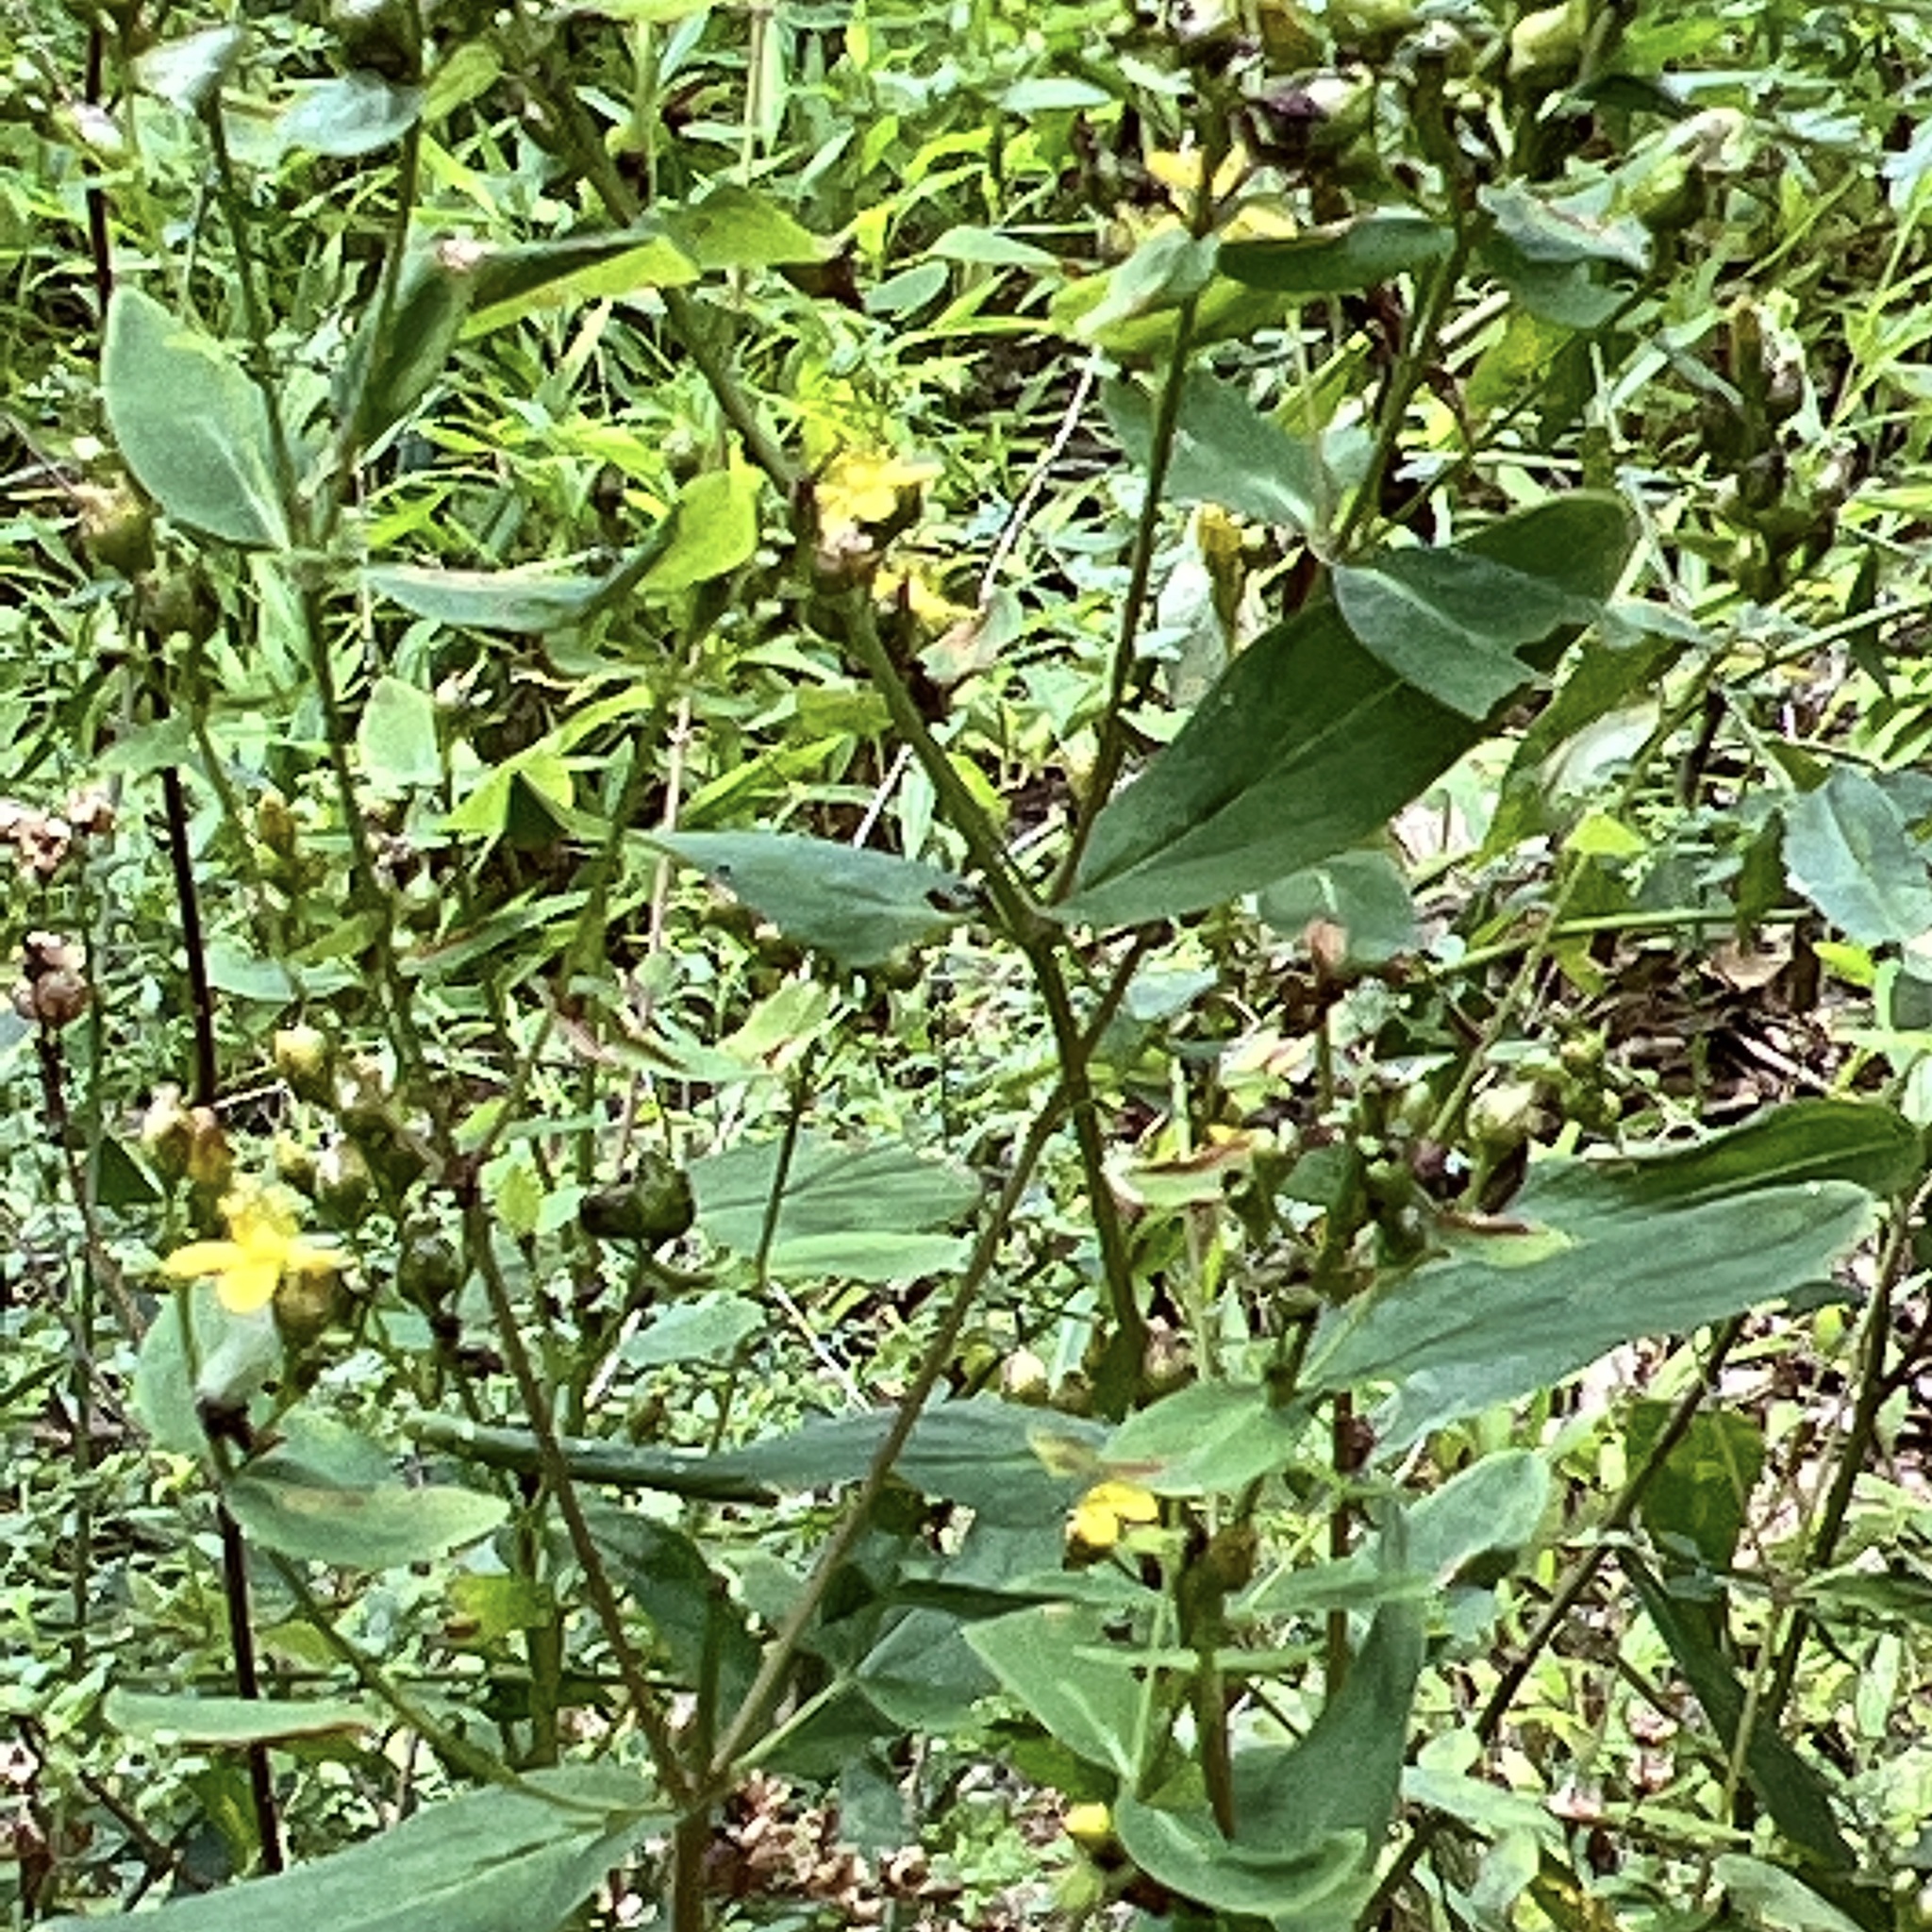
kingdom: Plantae
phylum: Tracheophyta
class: Magnoliopsida
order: Malpighiales
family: Hypericaceae
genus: Hypericum
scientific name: Hypericum punctatum
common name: Spotted st. john's-wort
